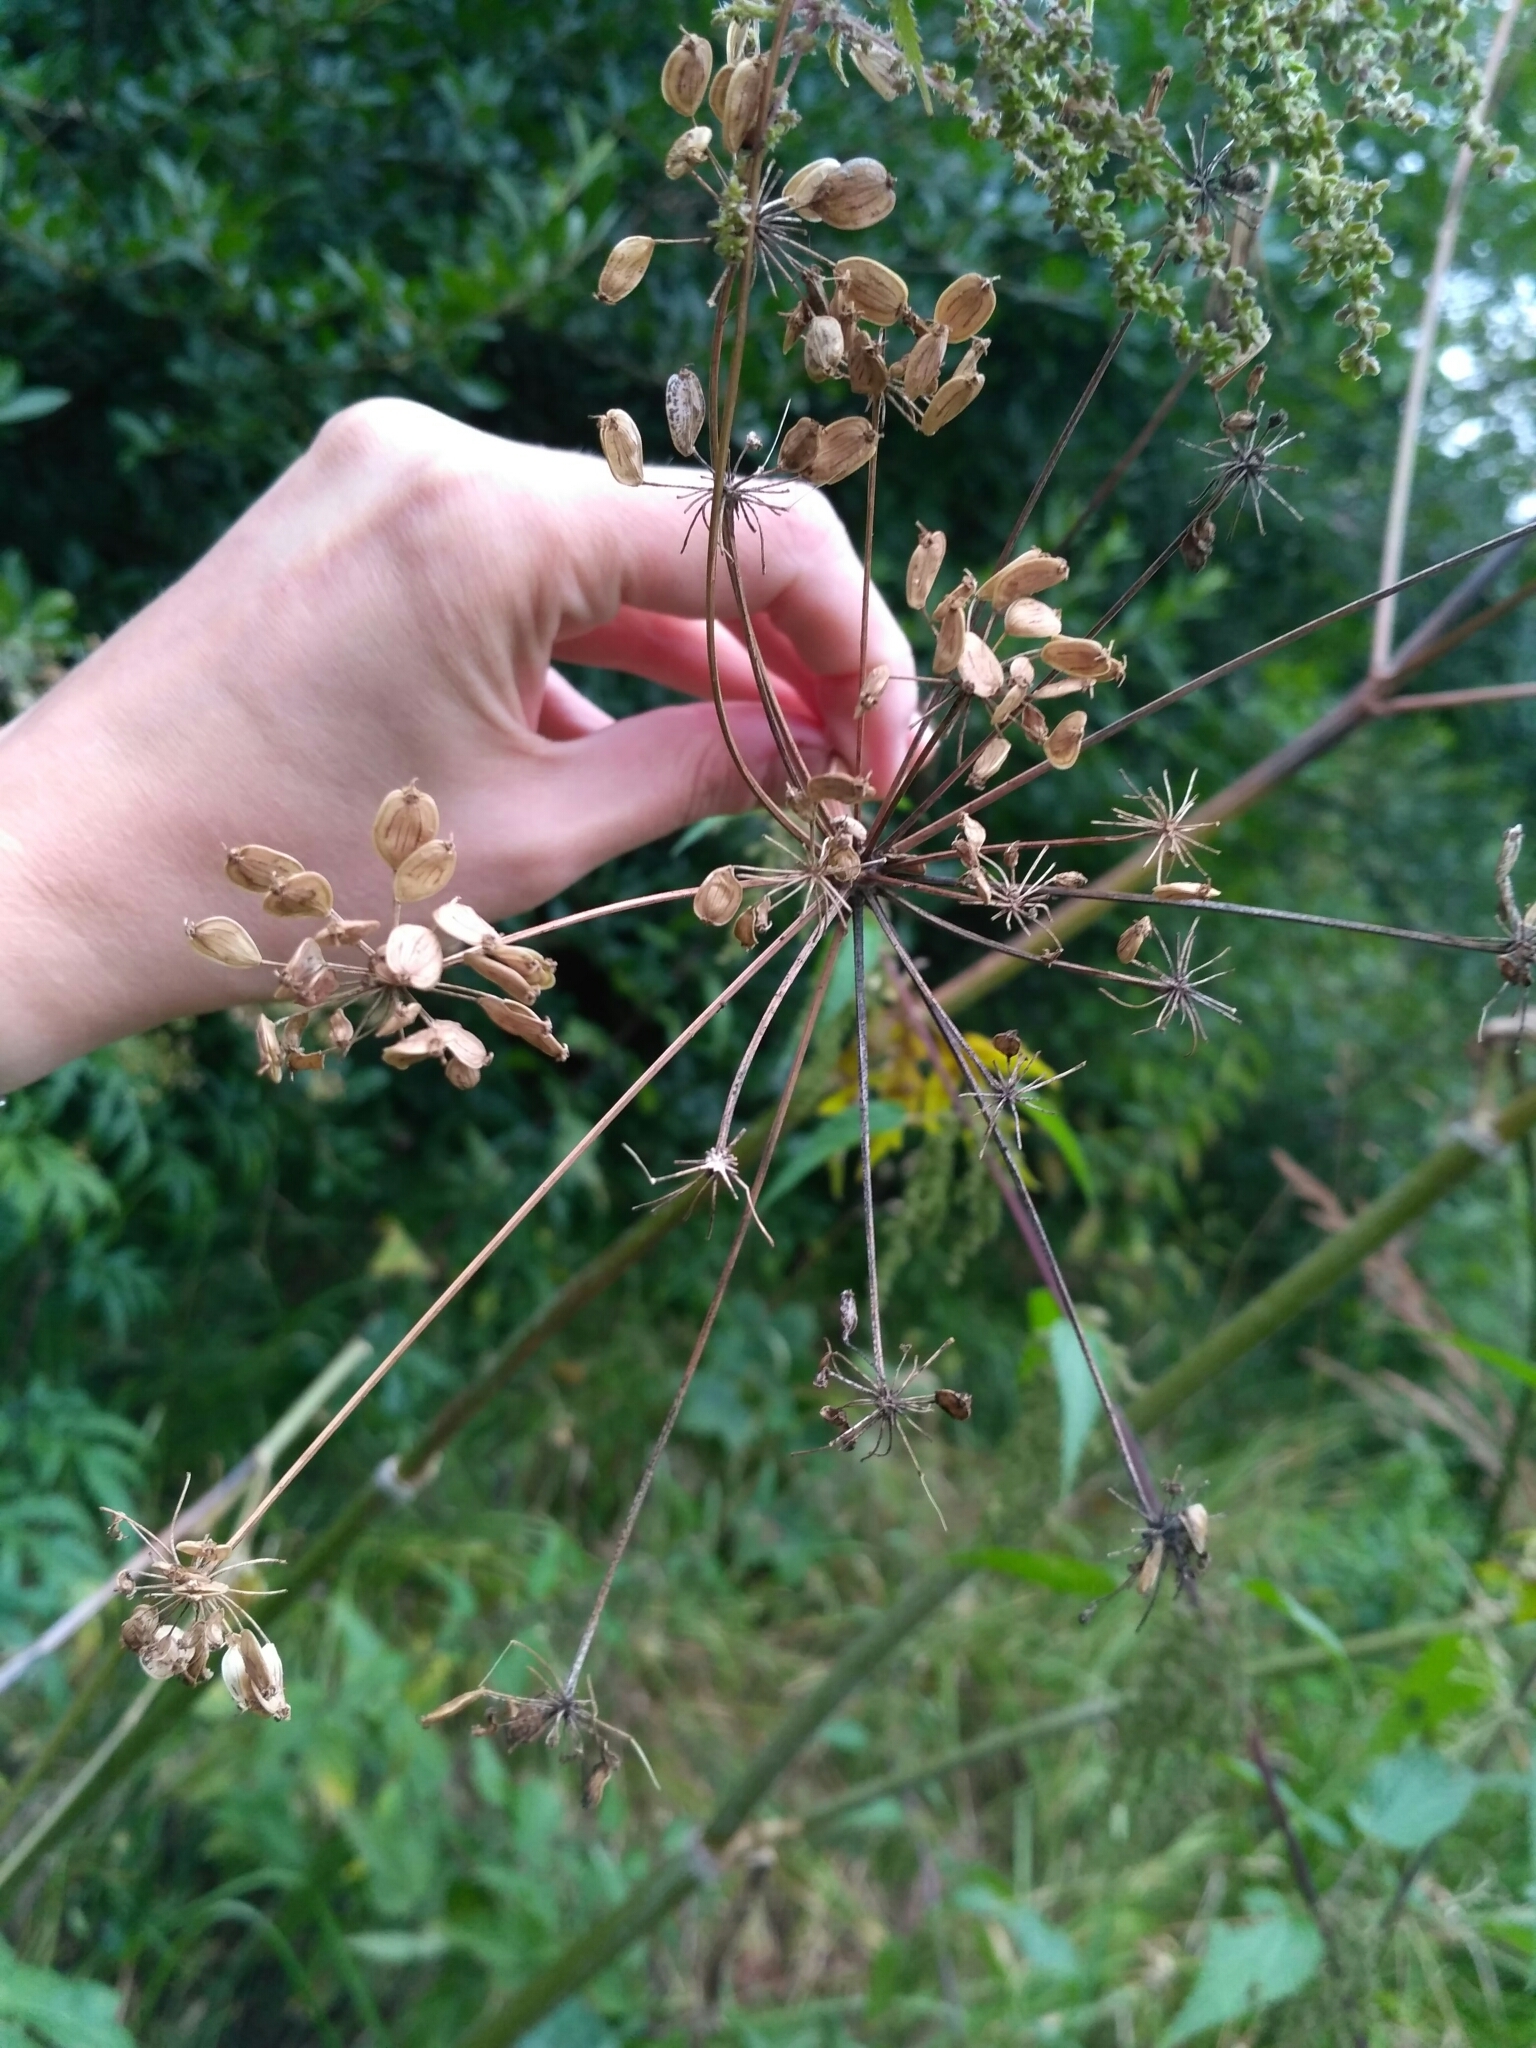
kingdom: Plantae
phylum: Tracheophyta
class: Magnoliopsida
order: Apiales
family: Apiaceae
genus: Heracleum
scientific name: Heracleum sphondylium
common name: Hogweed
